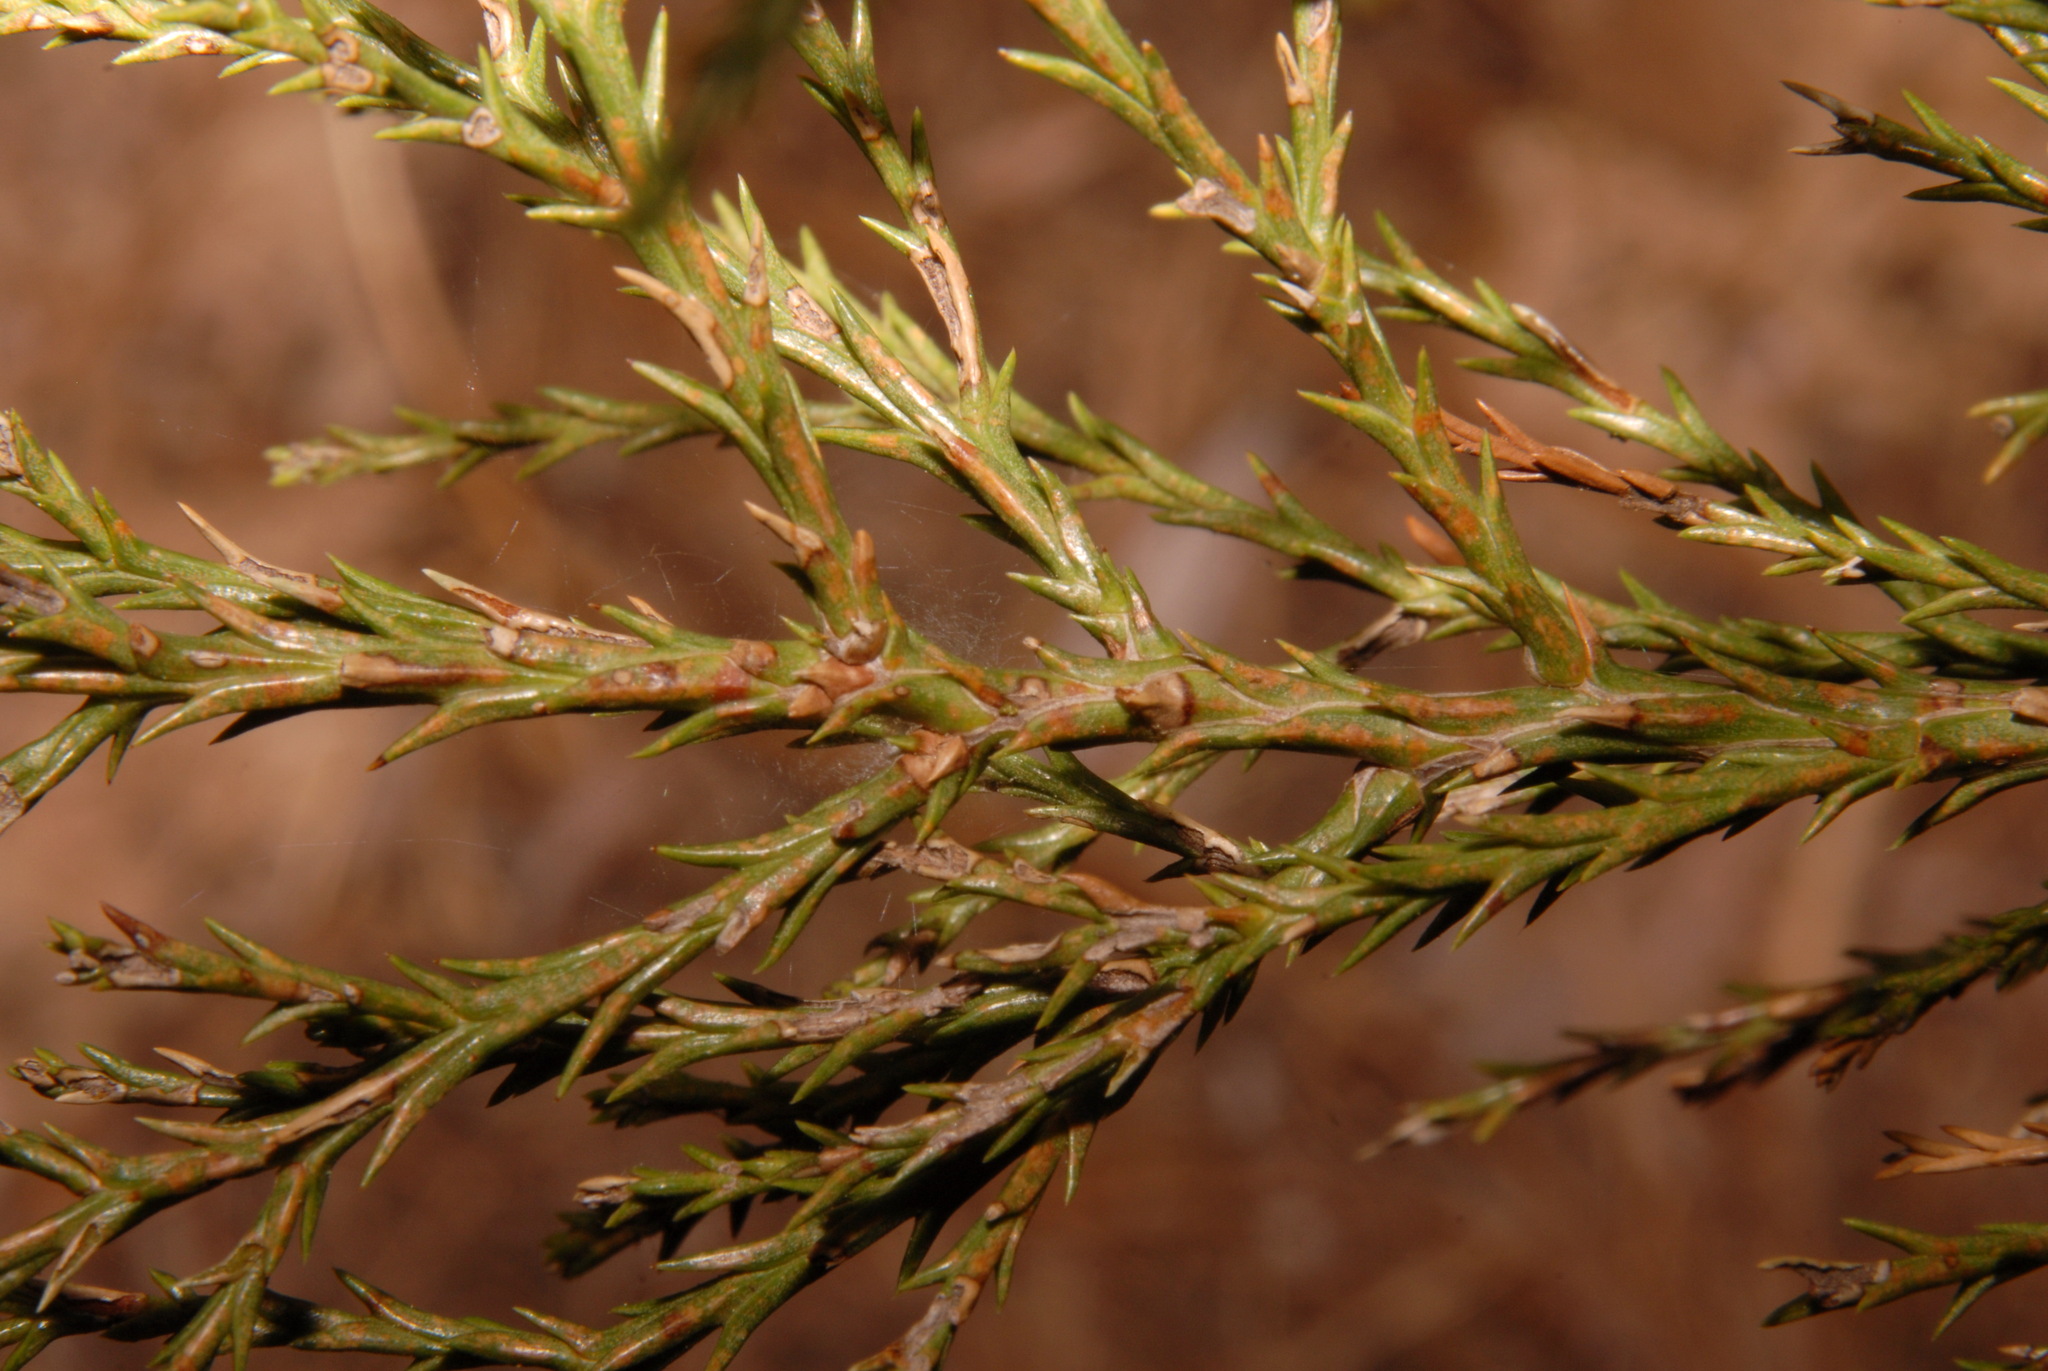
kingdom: Plantae
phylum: Tracheophyta
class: Pinopsida
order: Pinales
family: Cupressaceae
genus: Sequoiadendron
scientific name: Sequoiadendron giganteum
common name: Wellingtonia
